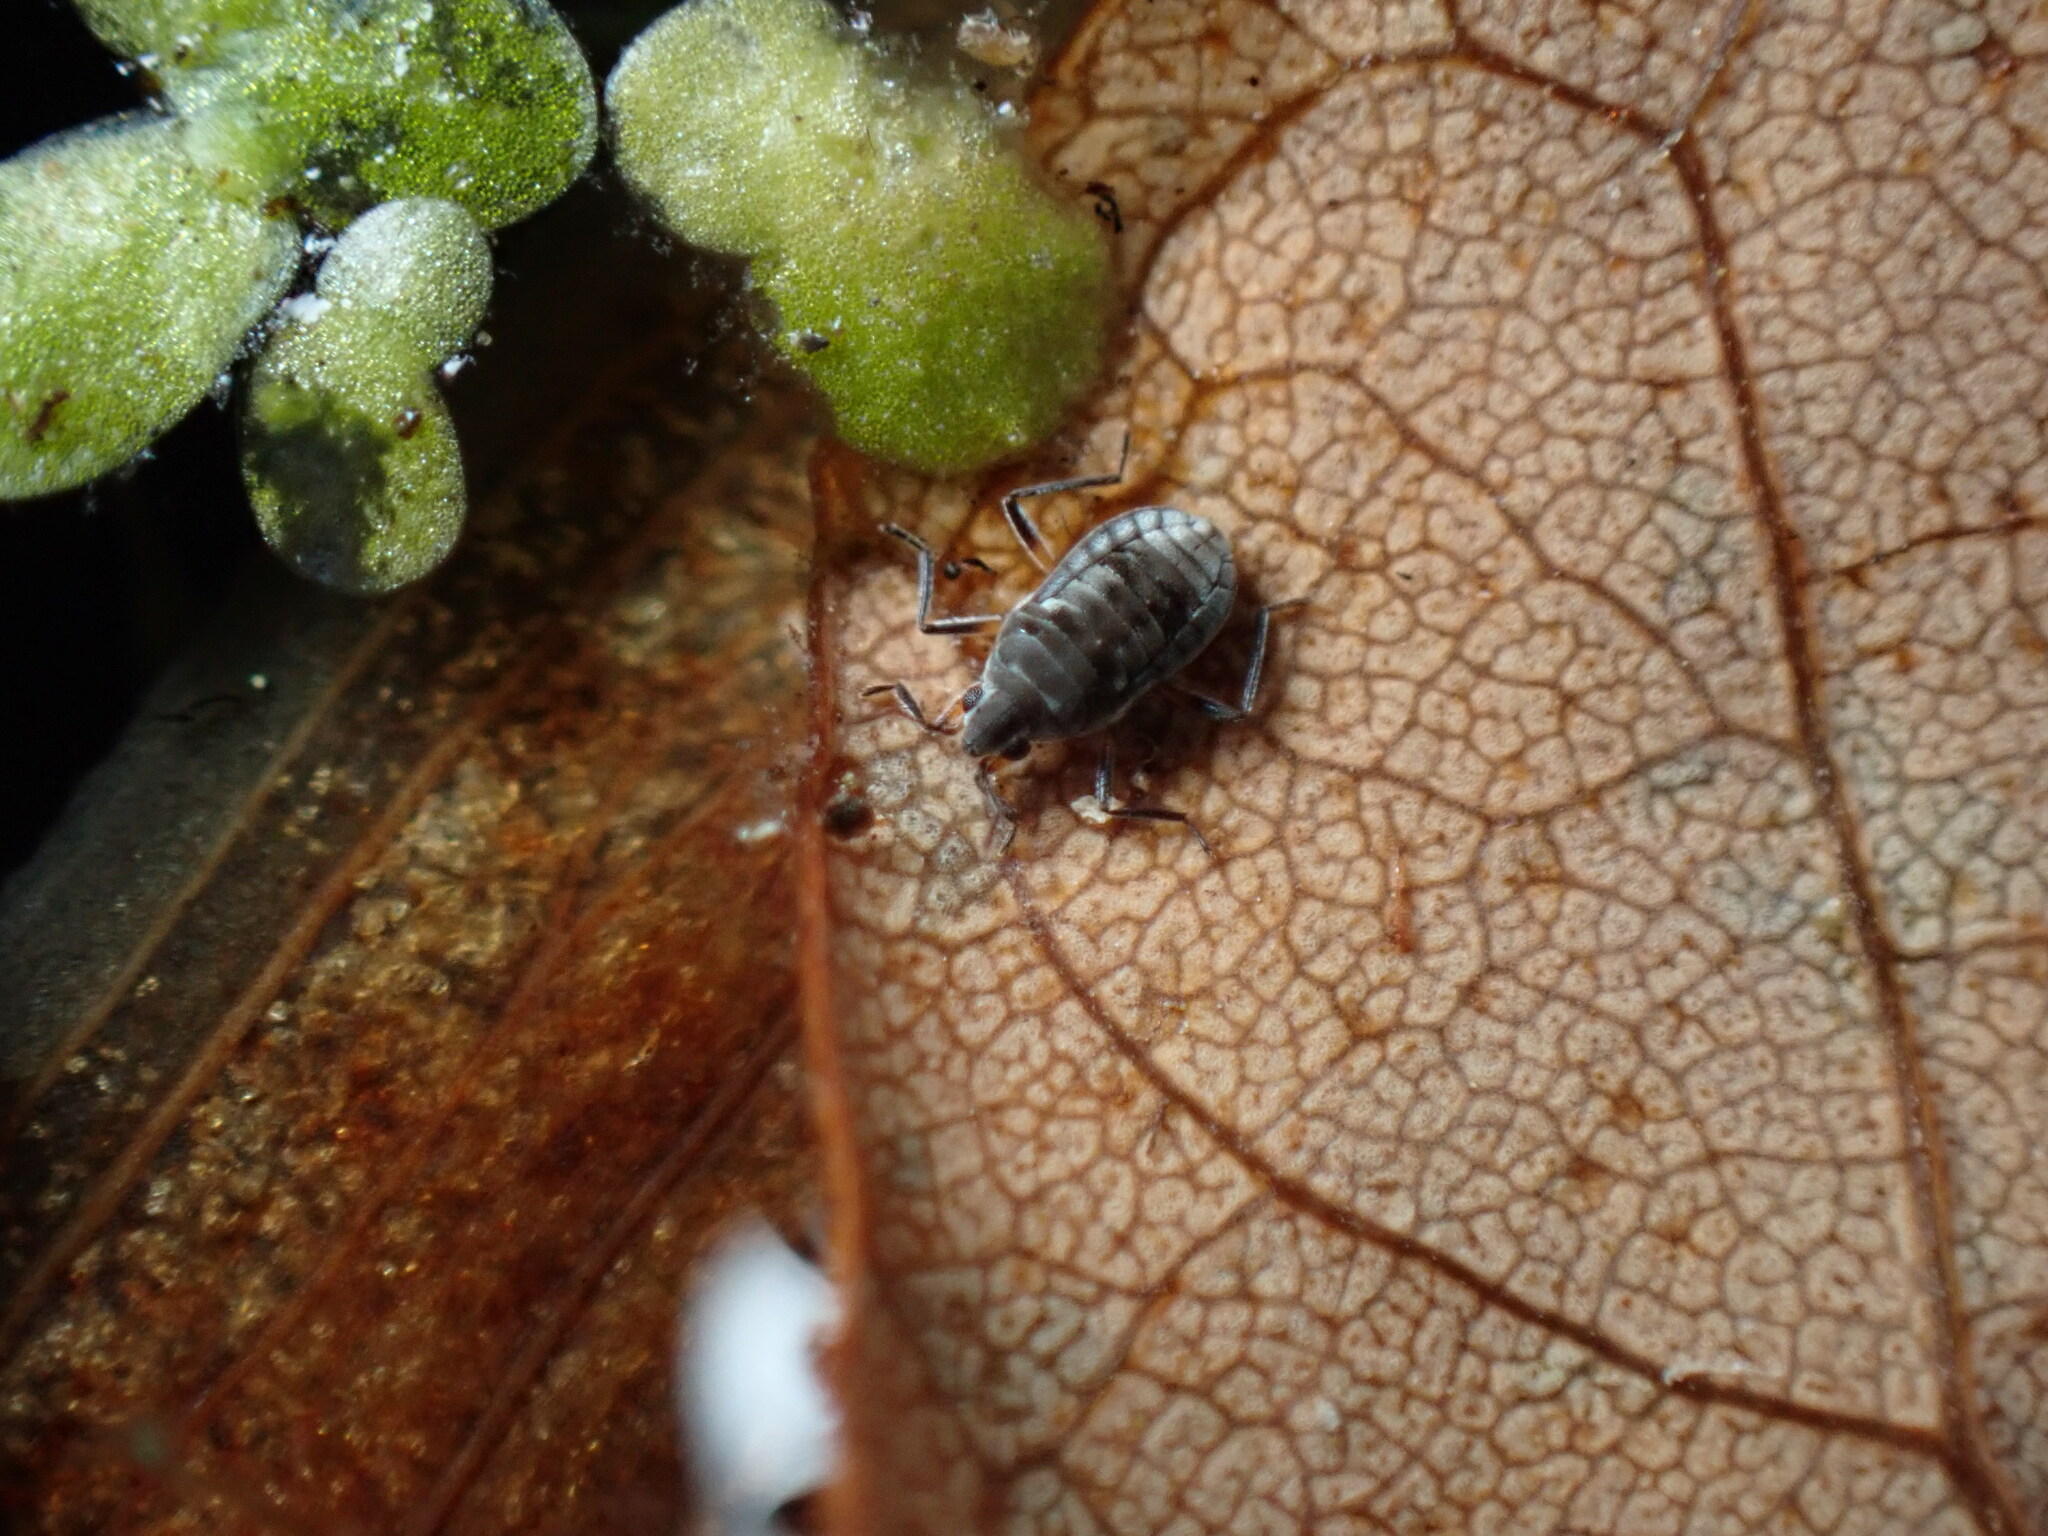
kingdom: Animalia
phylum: Arthropoda
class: Insecta
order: Hemiptera
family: Veliidae
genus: Microvelia
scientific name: Microvelia
